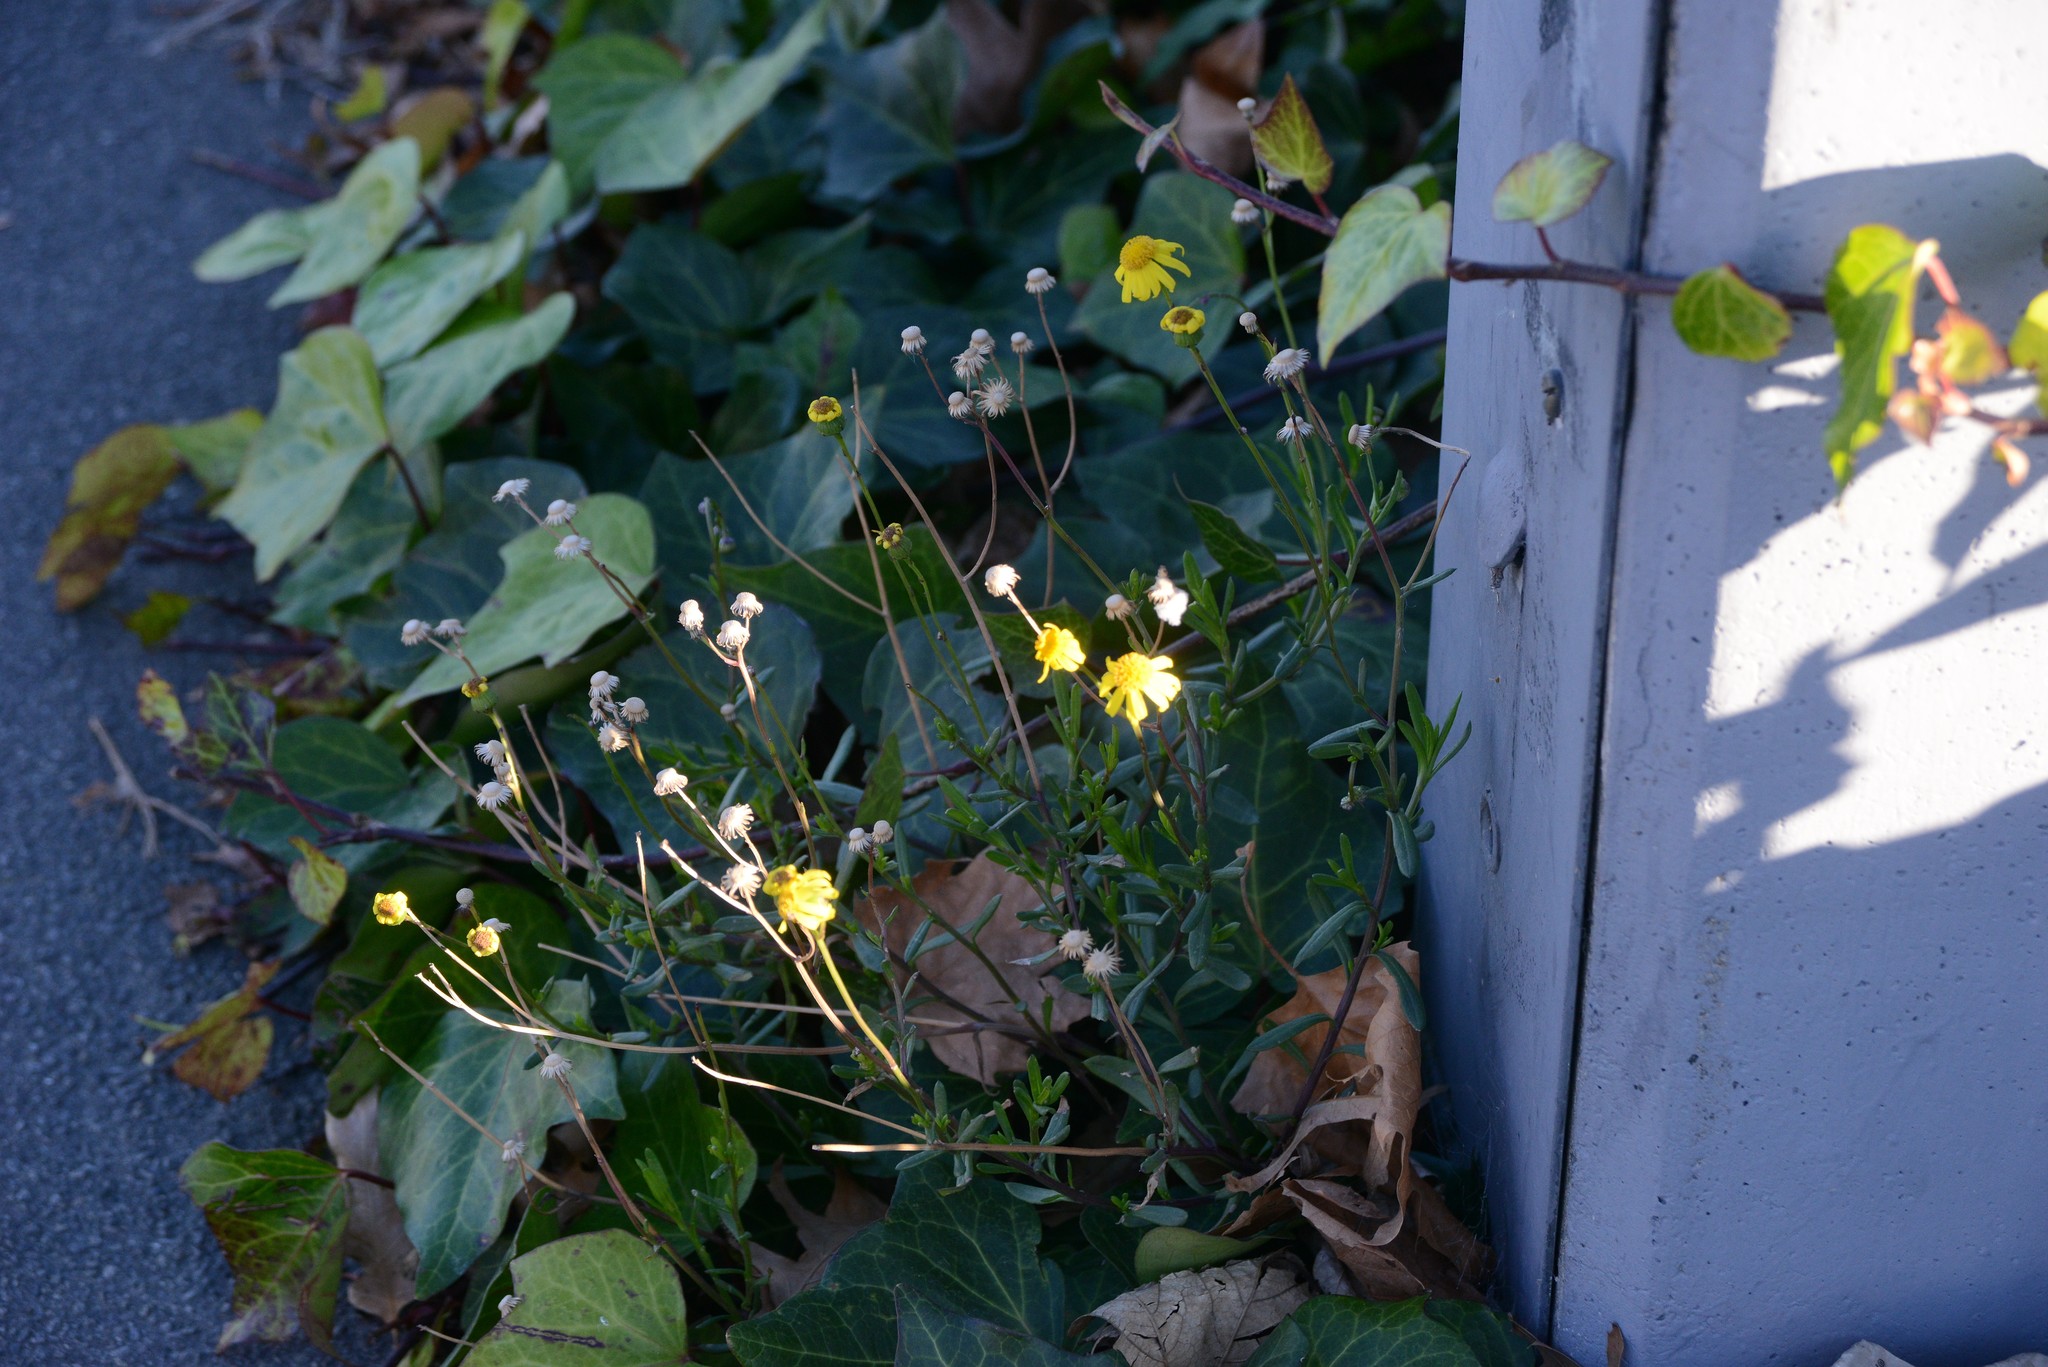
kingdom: Plantae
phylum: Tracheophyta
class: Magnoliopsida
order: Asterales
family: Asteraceae
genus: Senecio
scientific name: Senecio skirrhodon
